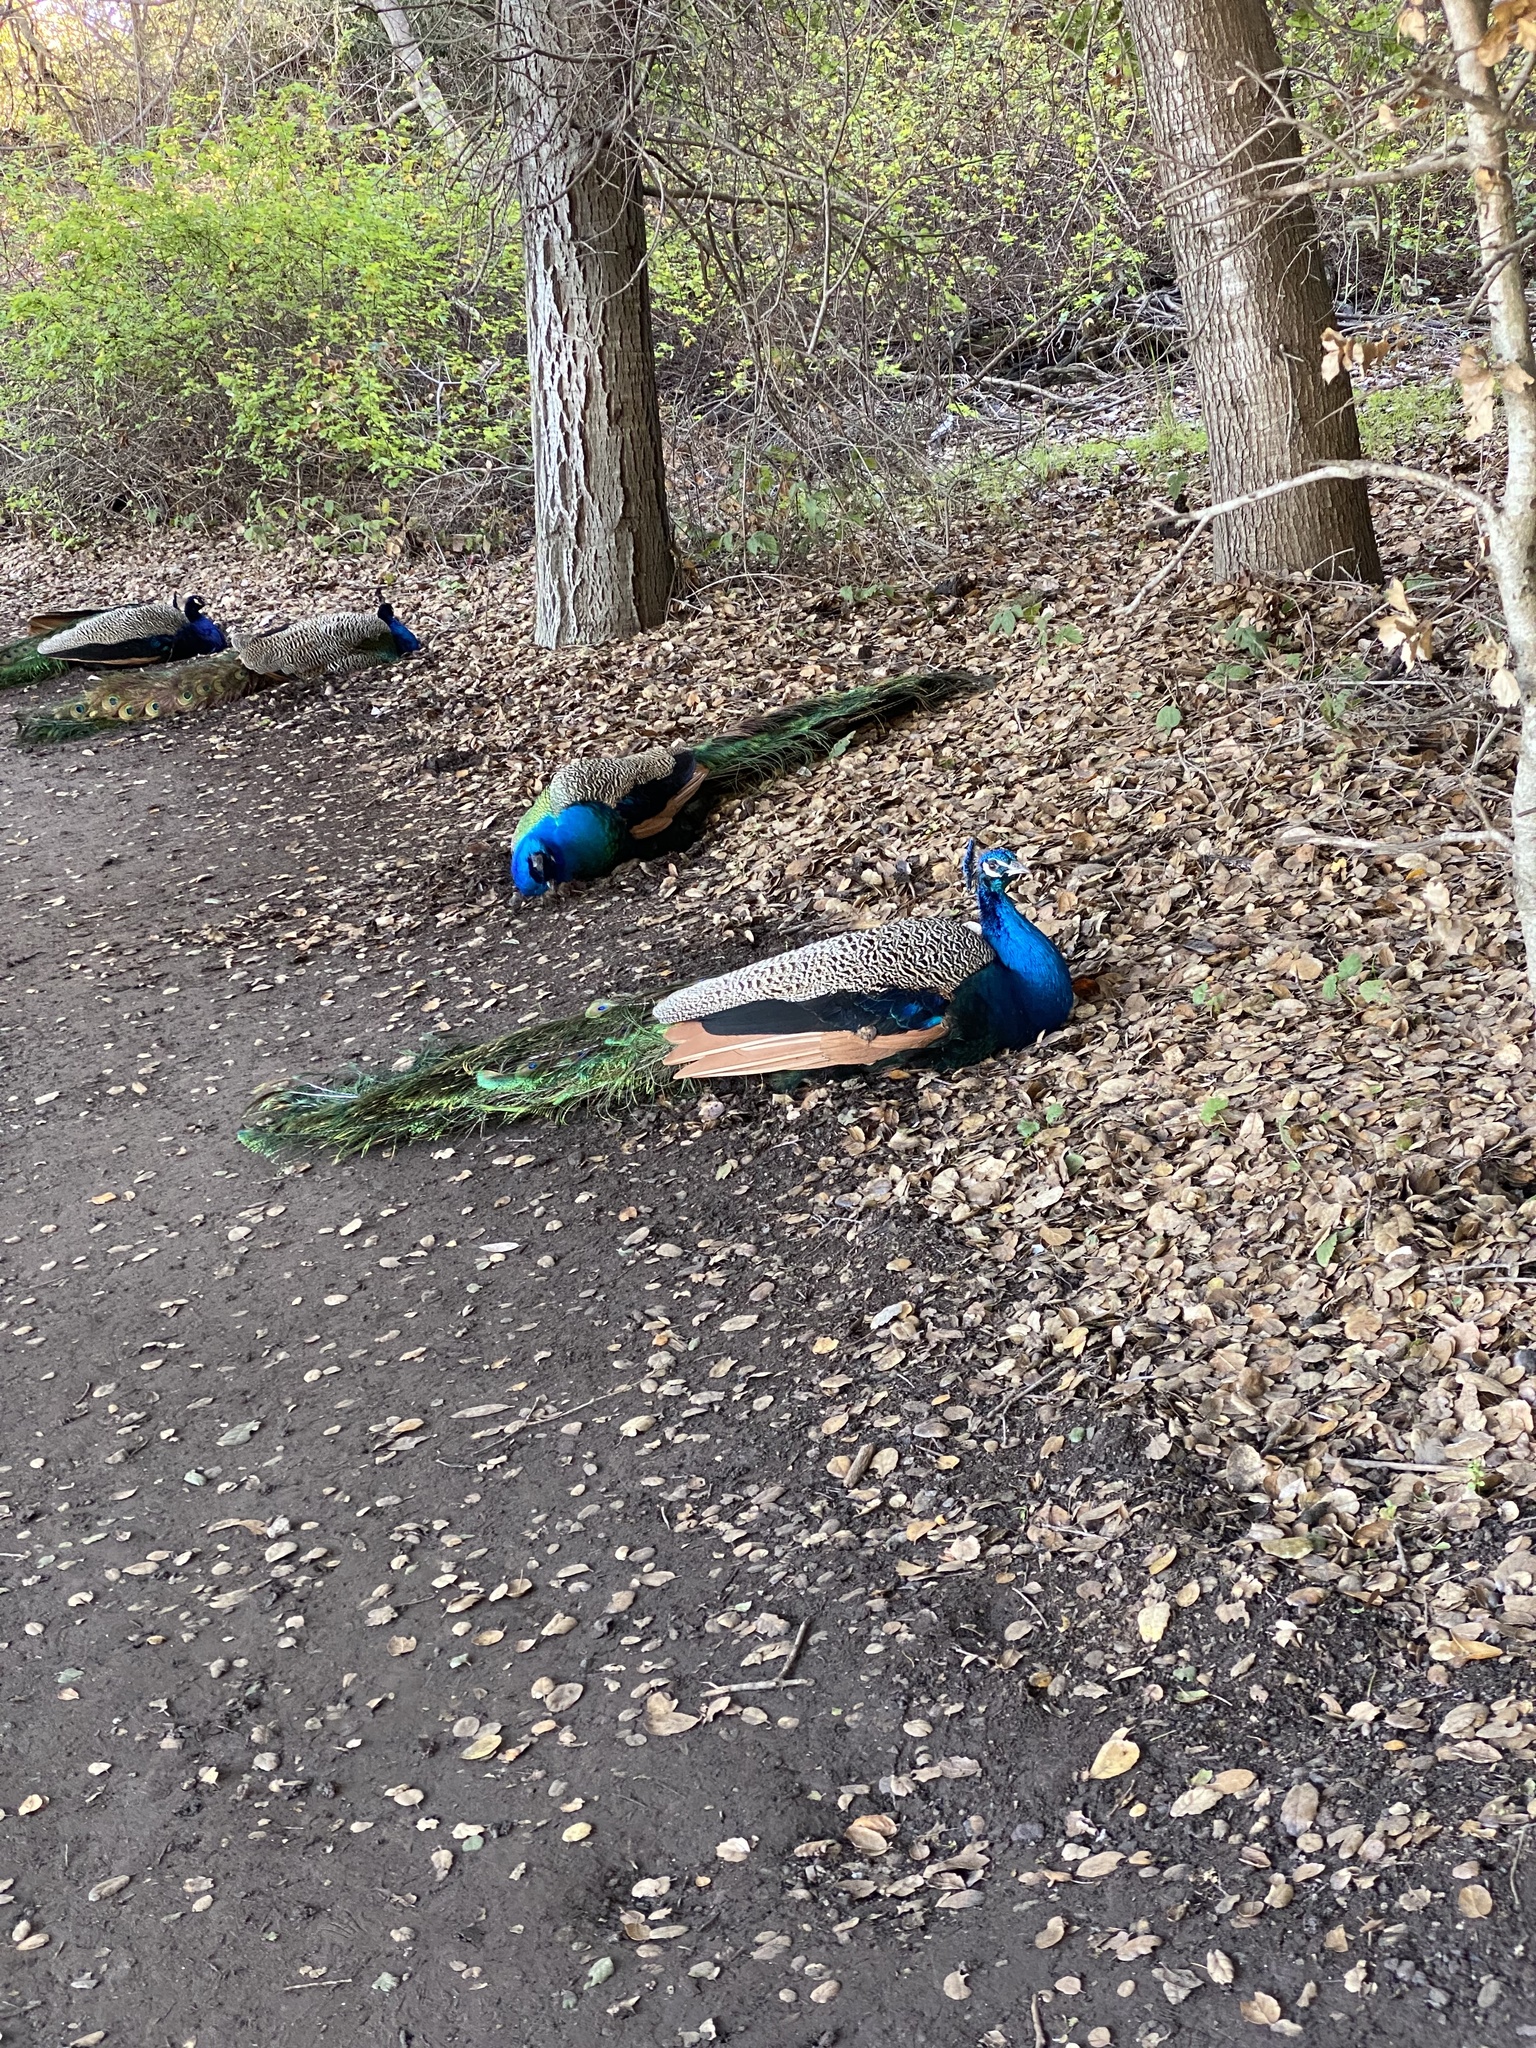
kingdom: Animalia
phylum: Chordata
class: Aves
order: Galliformes
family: Phasianidae
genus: Pavo
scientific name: Pavo cristatus
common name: Indian peafowl
